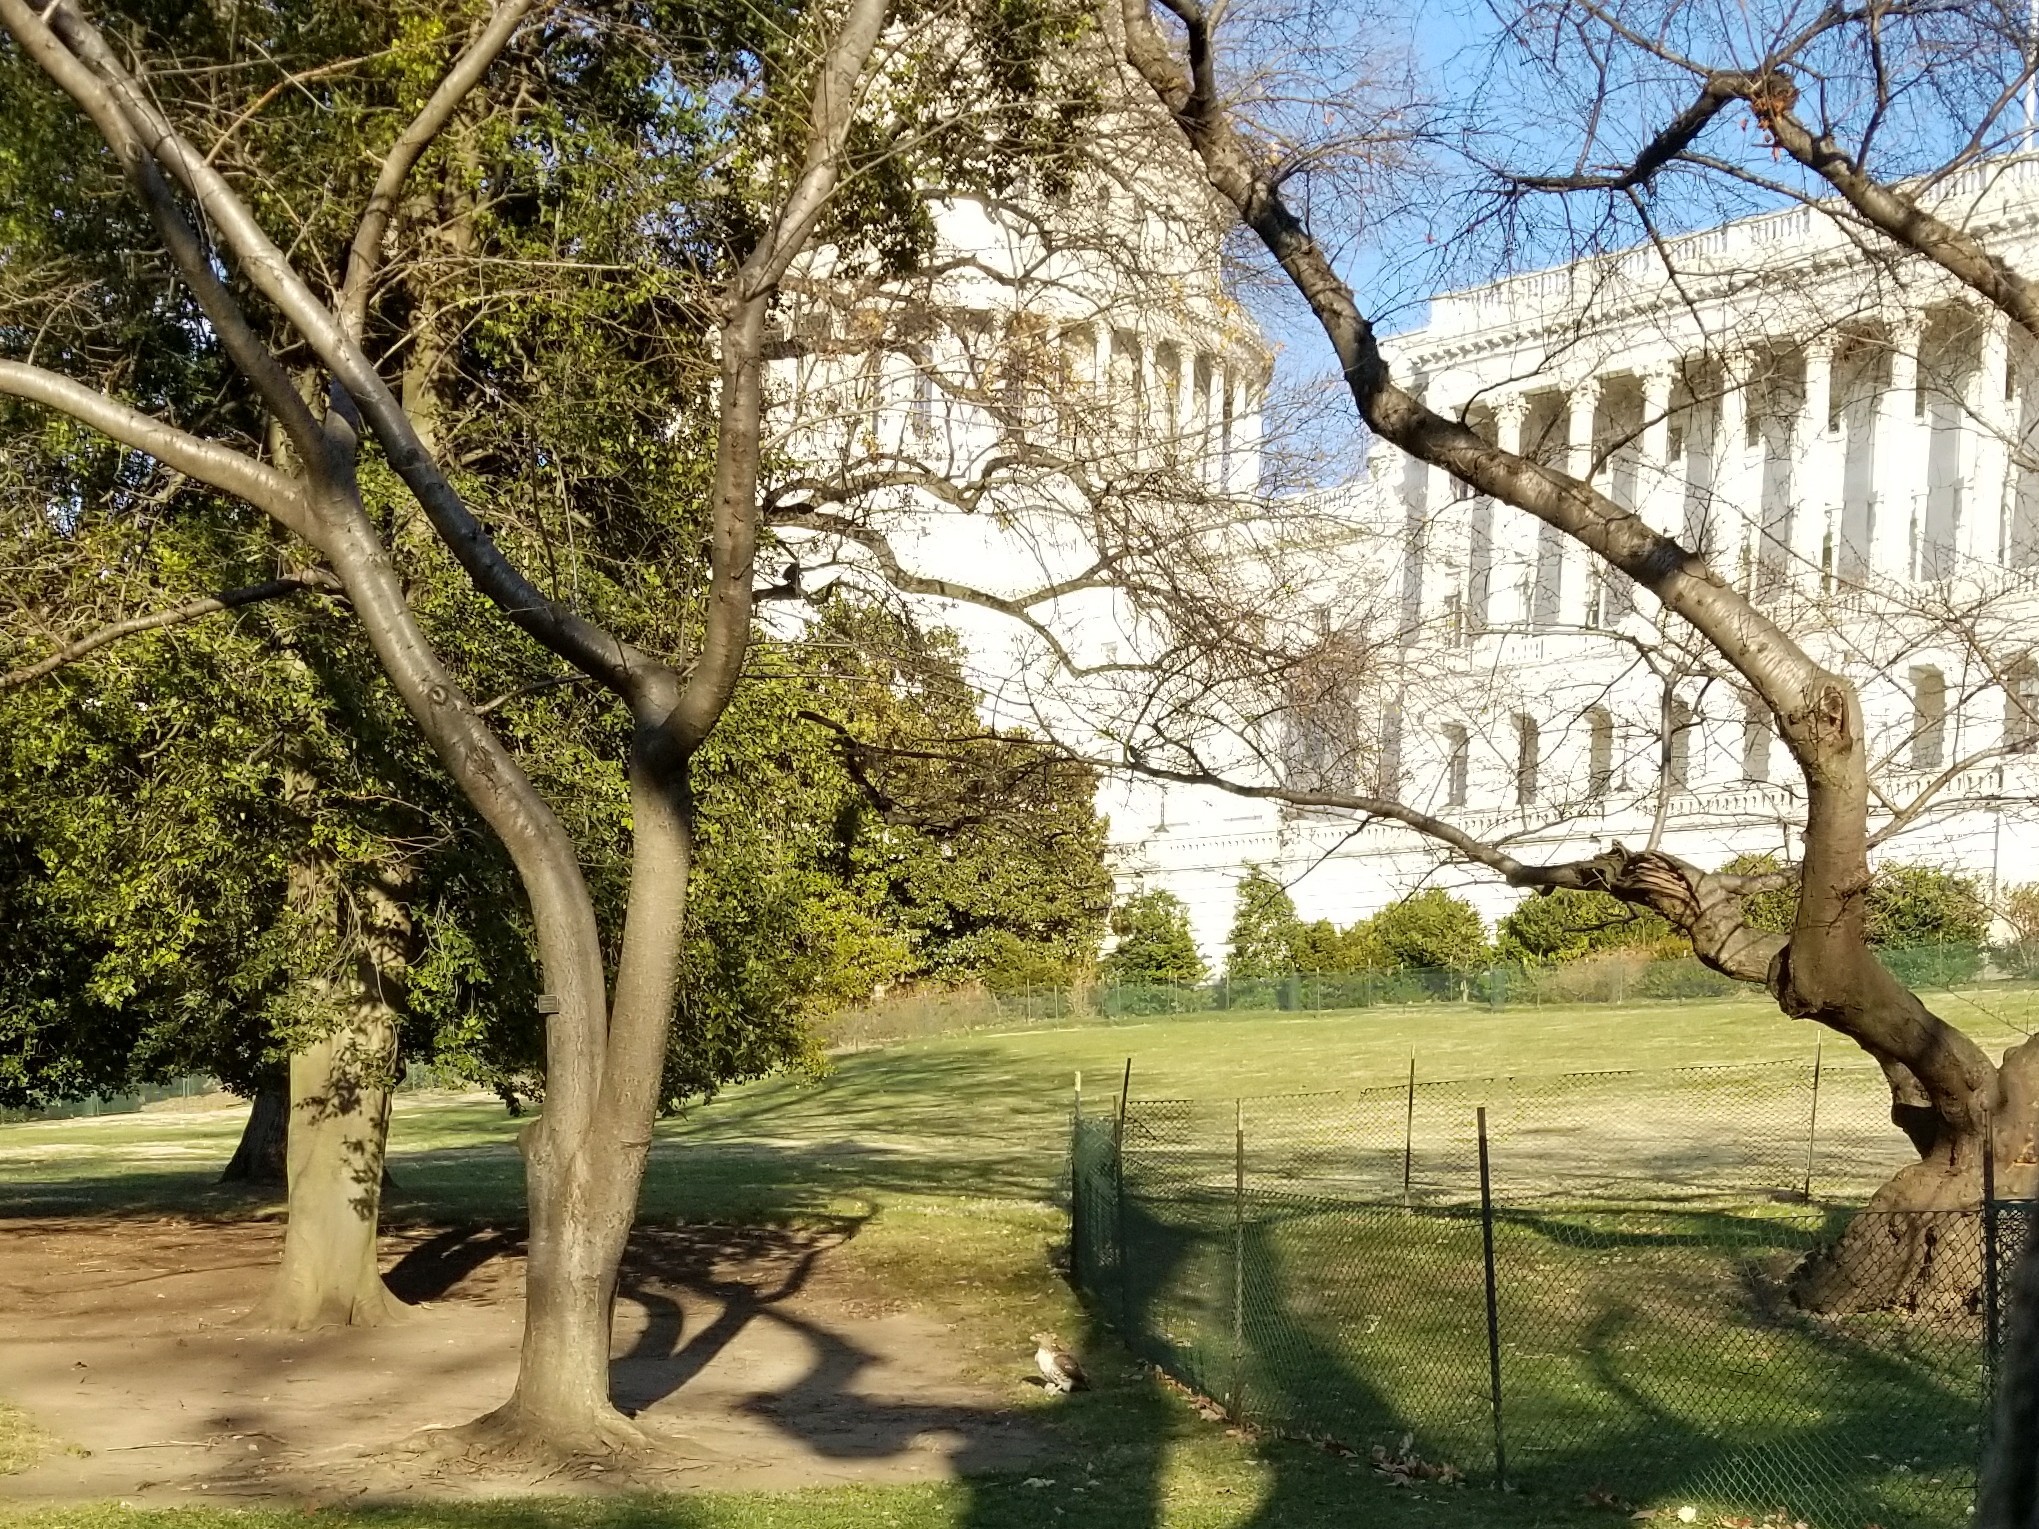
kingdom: Animalia
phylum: Chordata
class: Aves
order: Accipitriformes
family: Accipitridae
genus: Buteo
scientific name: Buteo jamaicensis
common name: Red-tailed hawk
